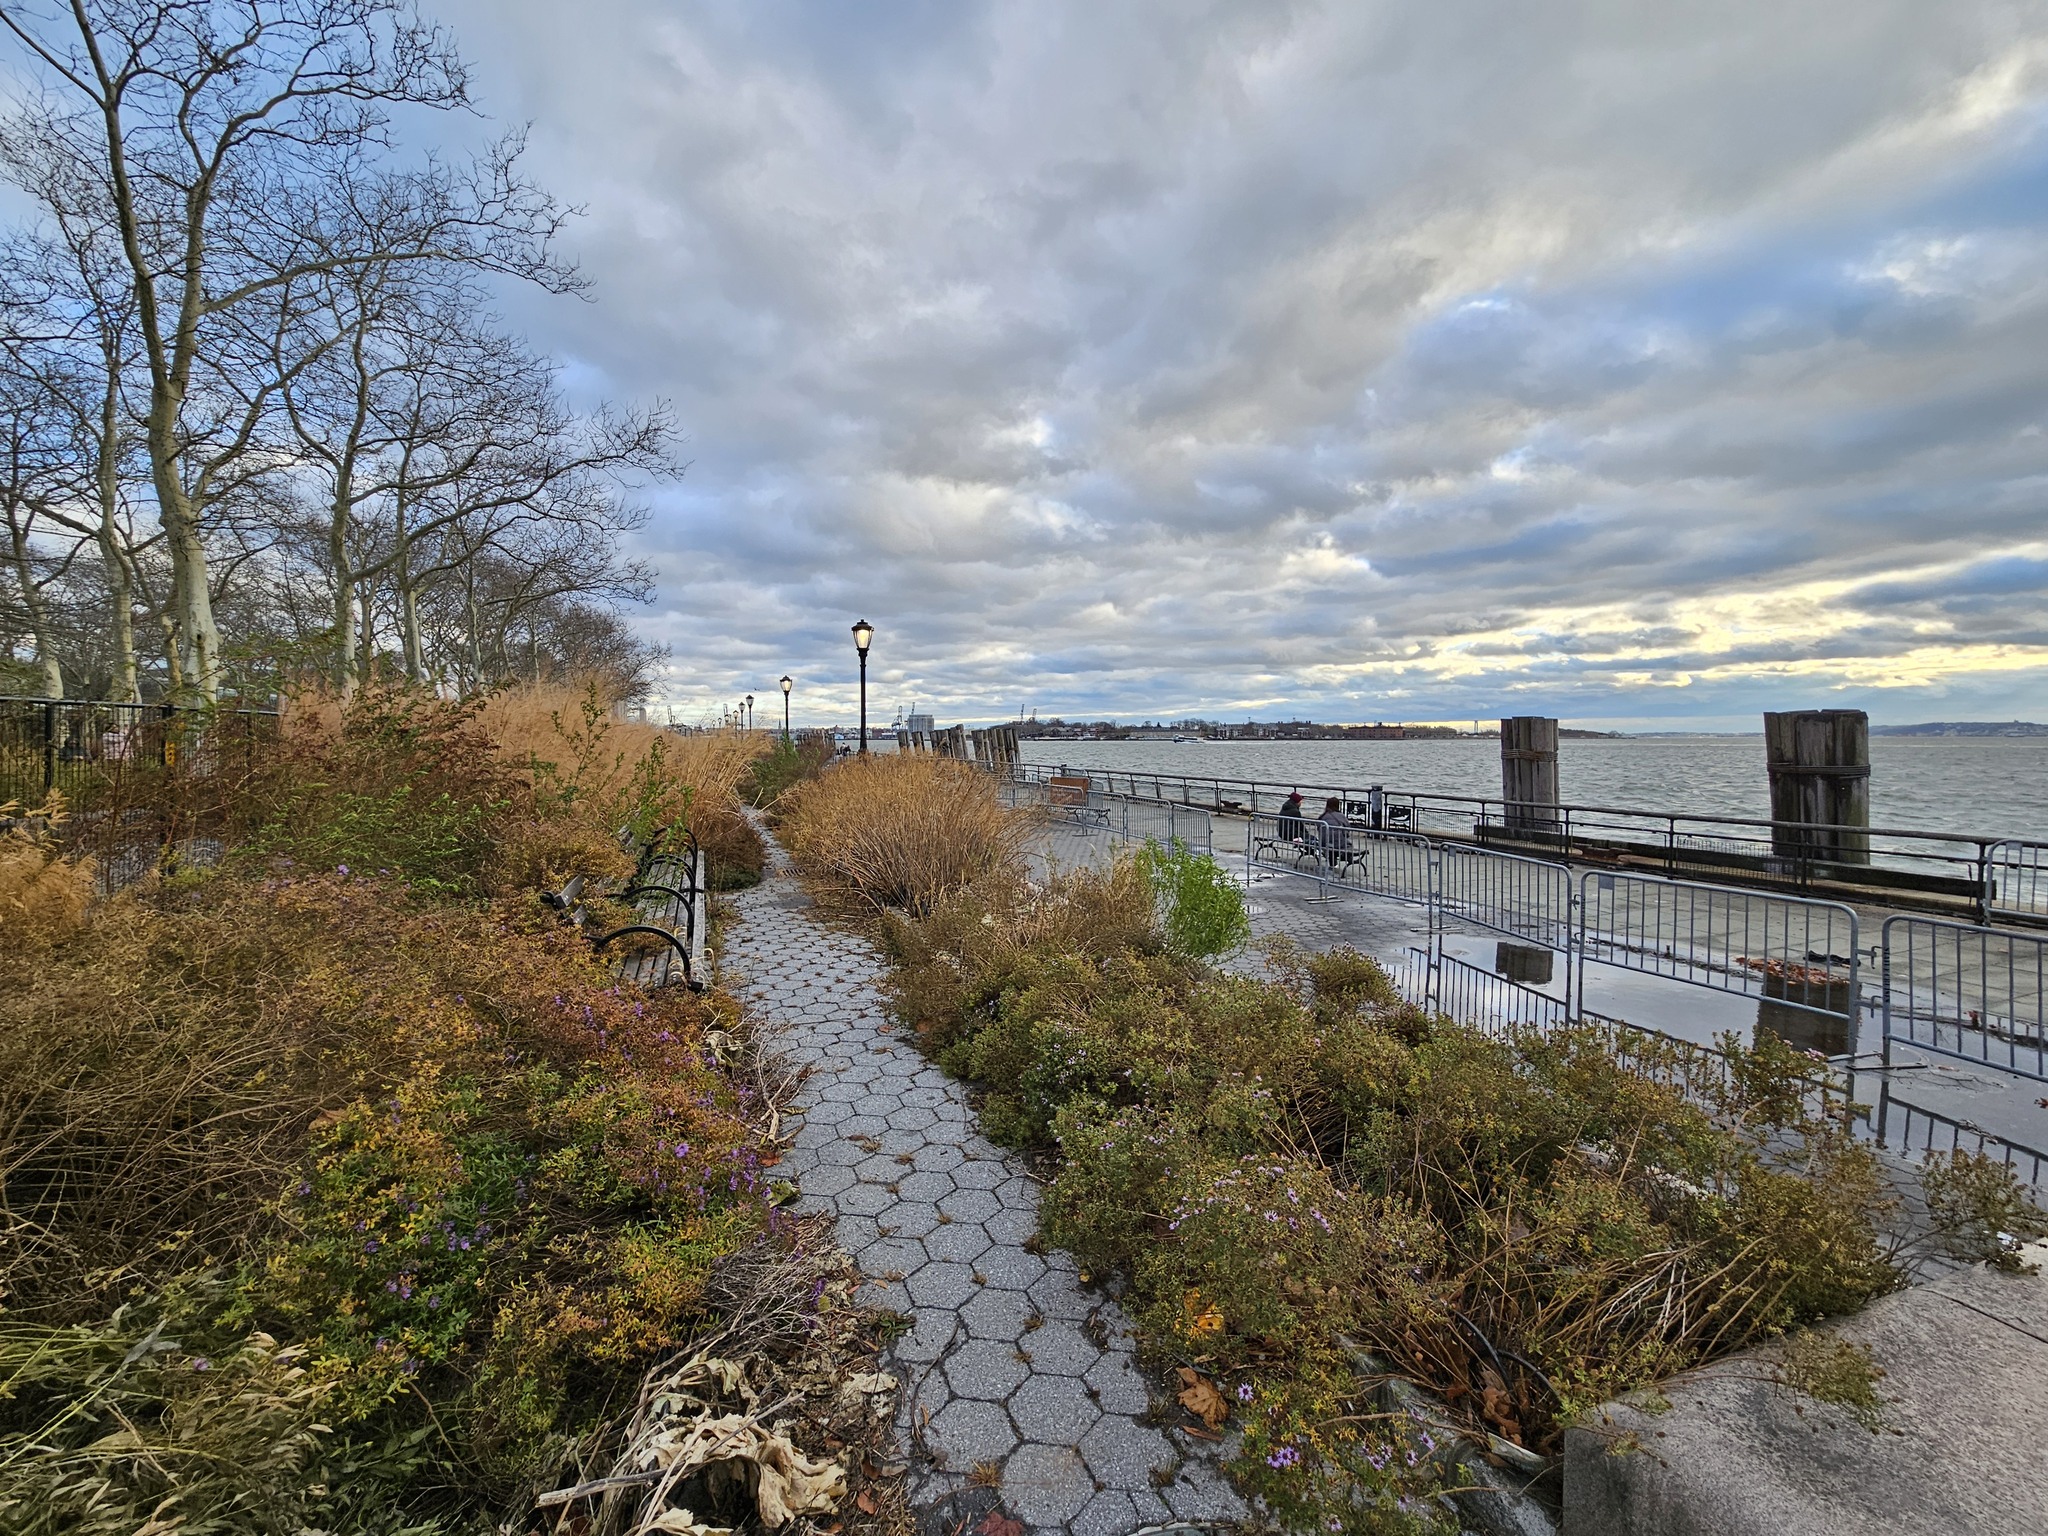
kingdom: Plantae
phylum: Tracheophyta
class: Magnoliopsida
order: Caryophyllales
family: Amaranthaceae
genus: Chenopodium
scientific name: Chenopodium album
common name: Fat-hen
